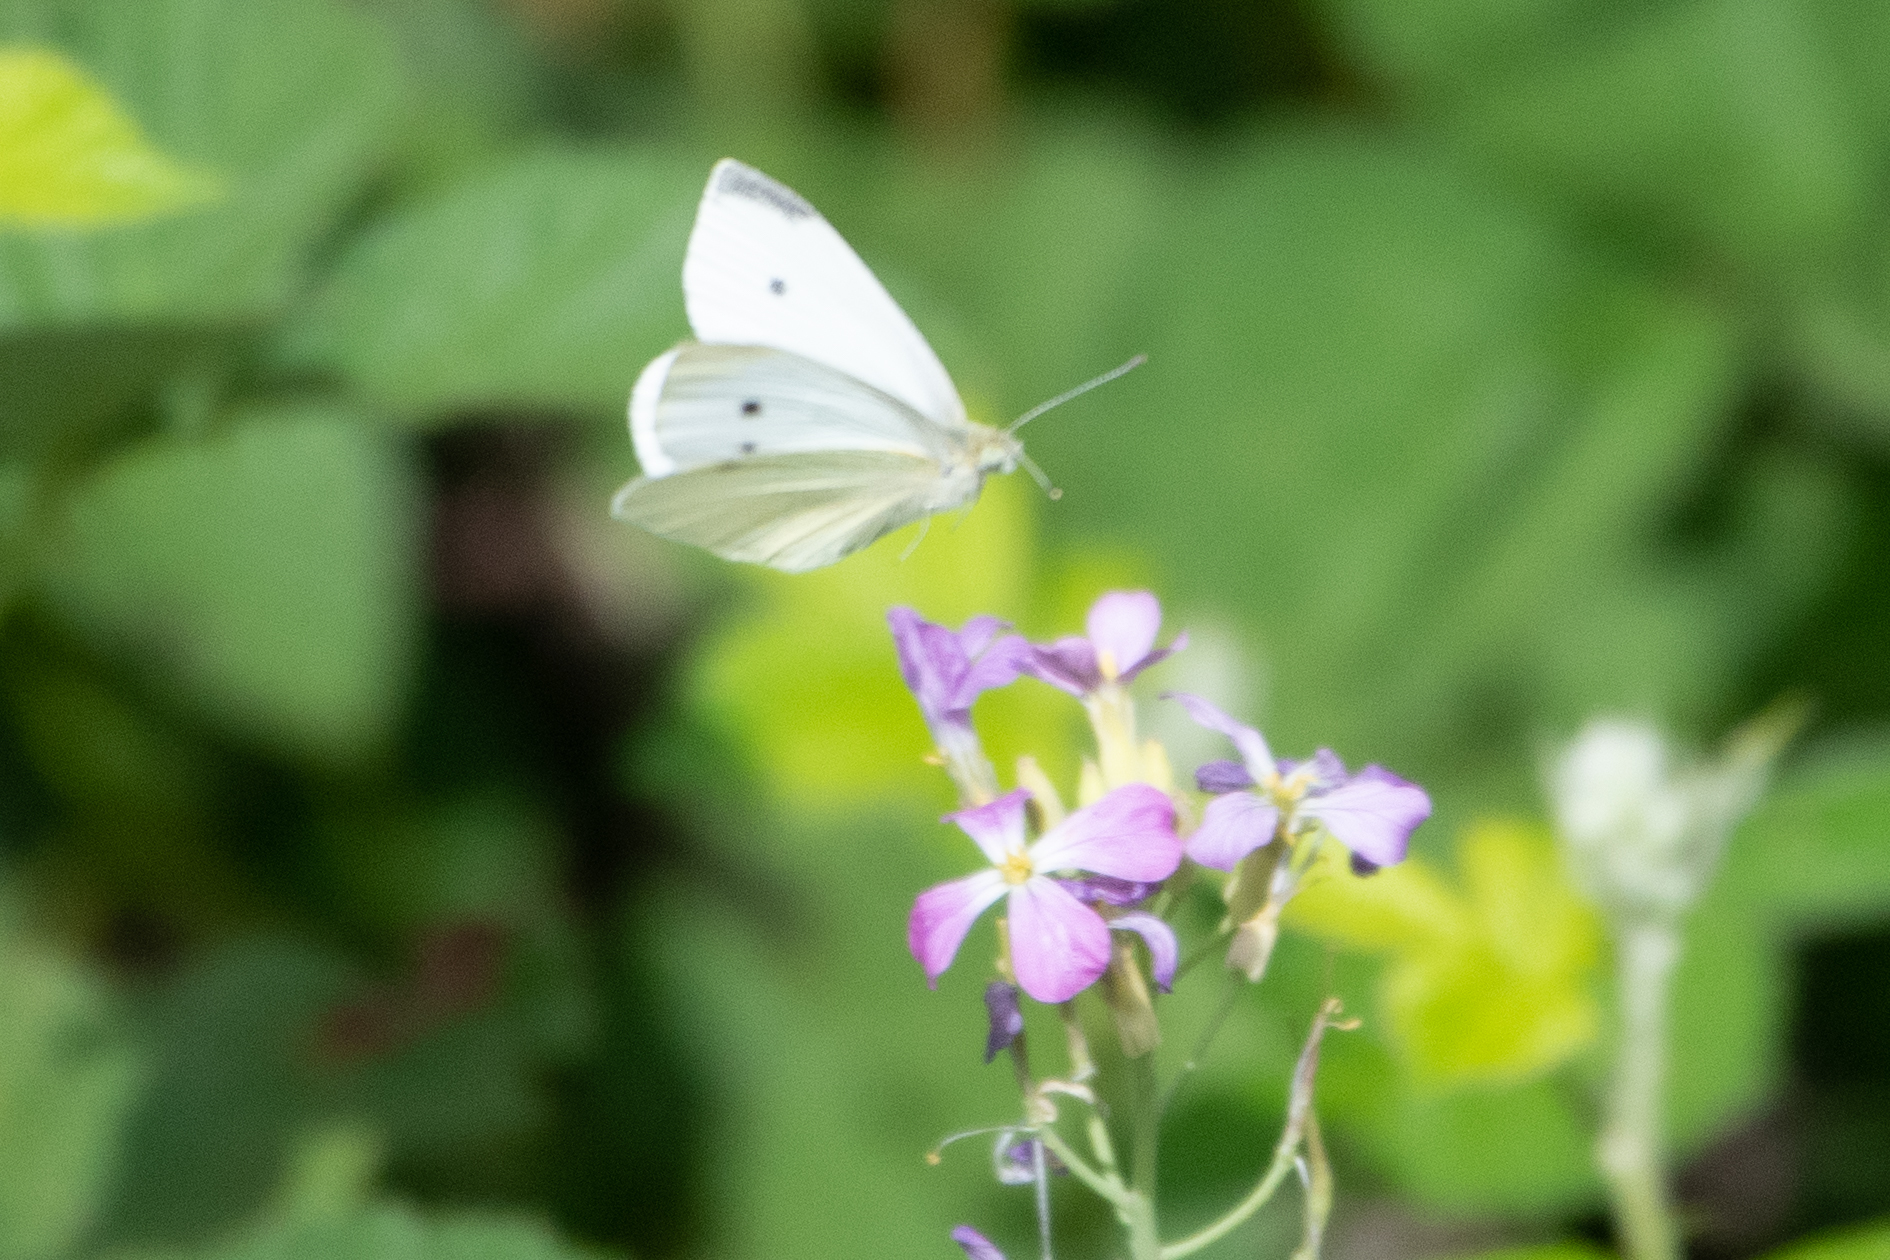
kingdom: Animalia
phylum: Arthropoda
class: Insecta
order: Lepidoptera
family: Pieridae
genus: Pieris
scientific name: Pieris rapae
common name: Small white
